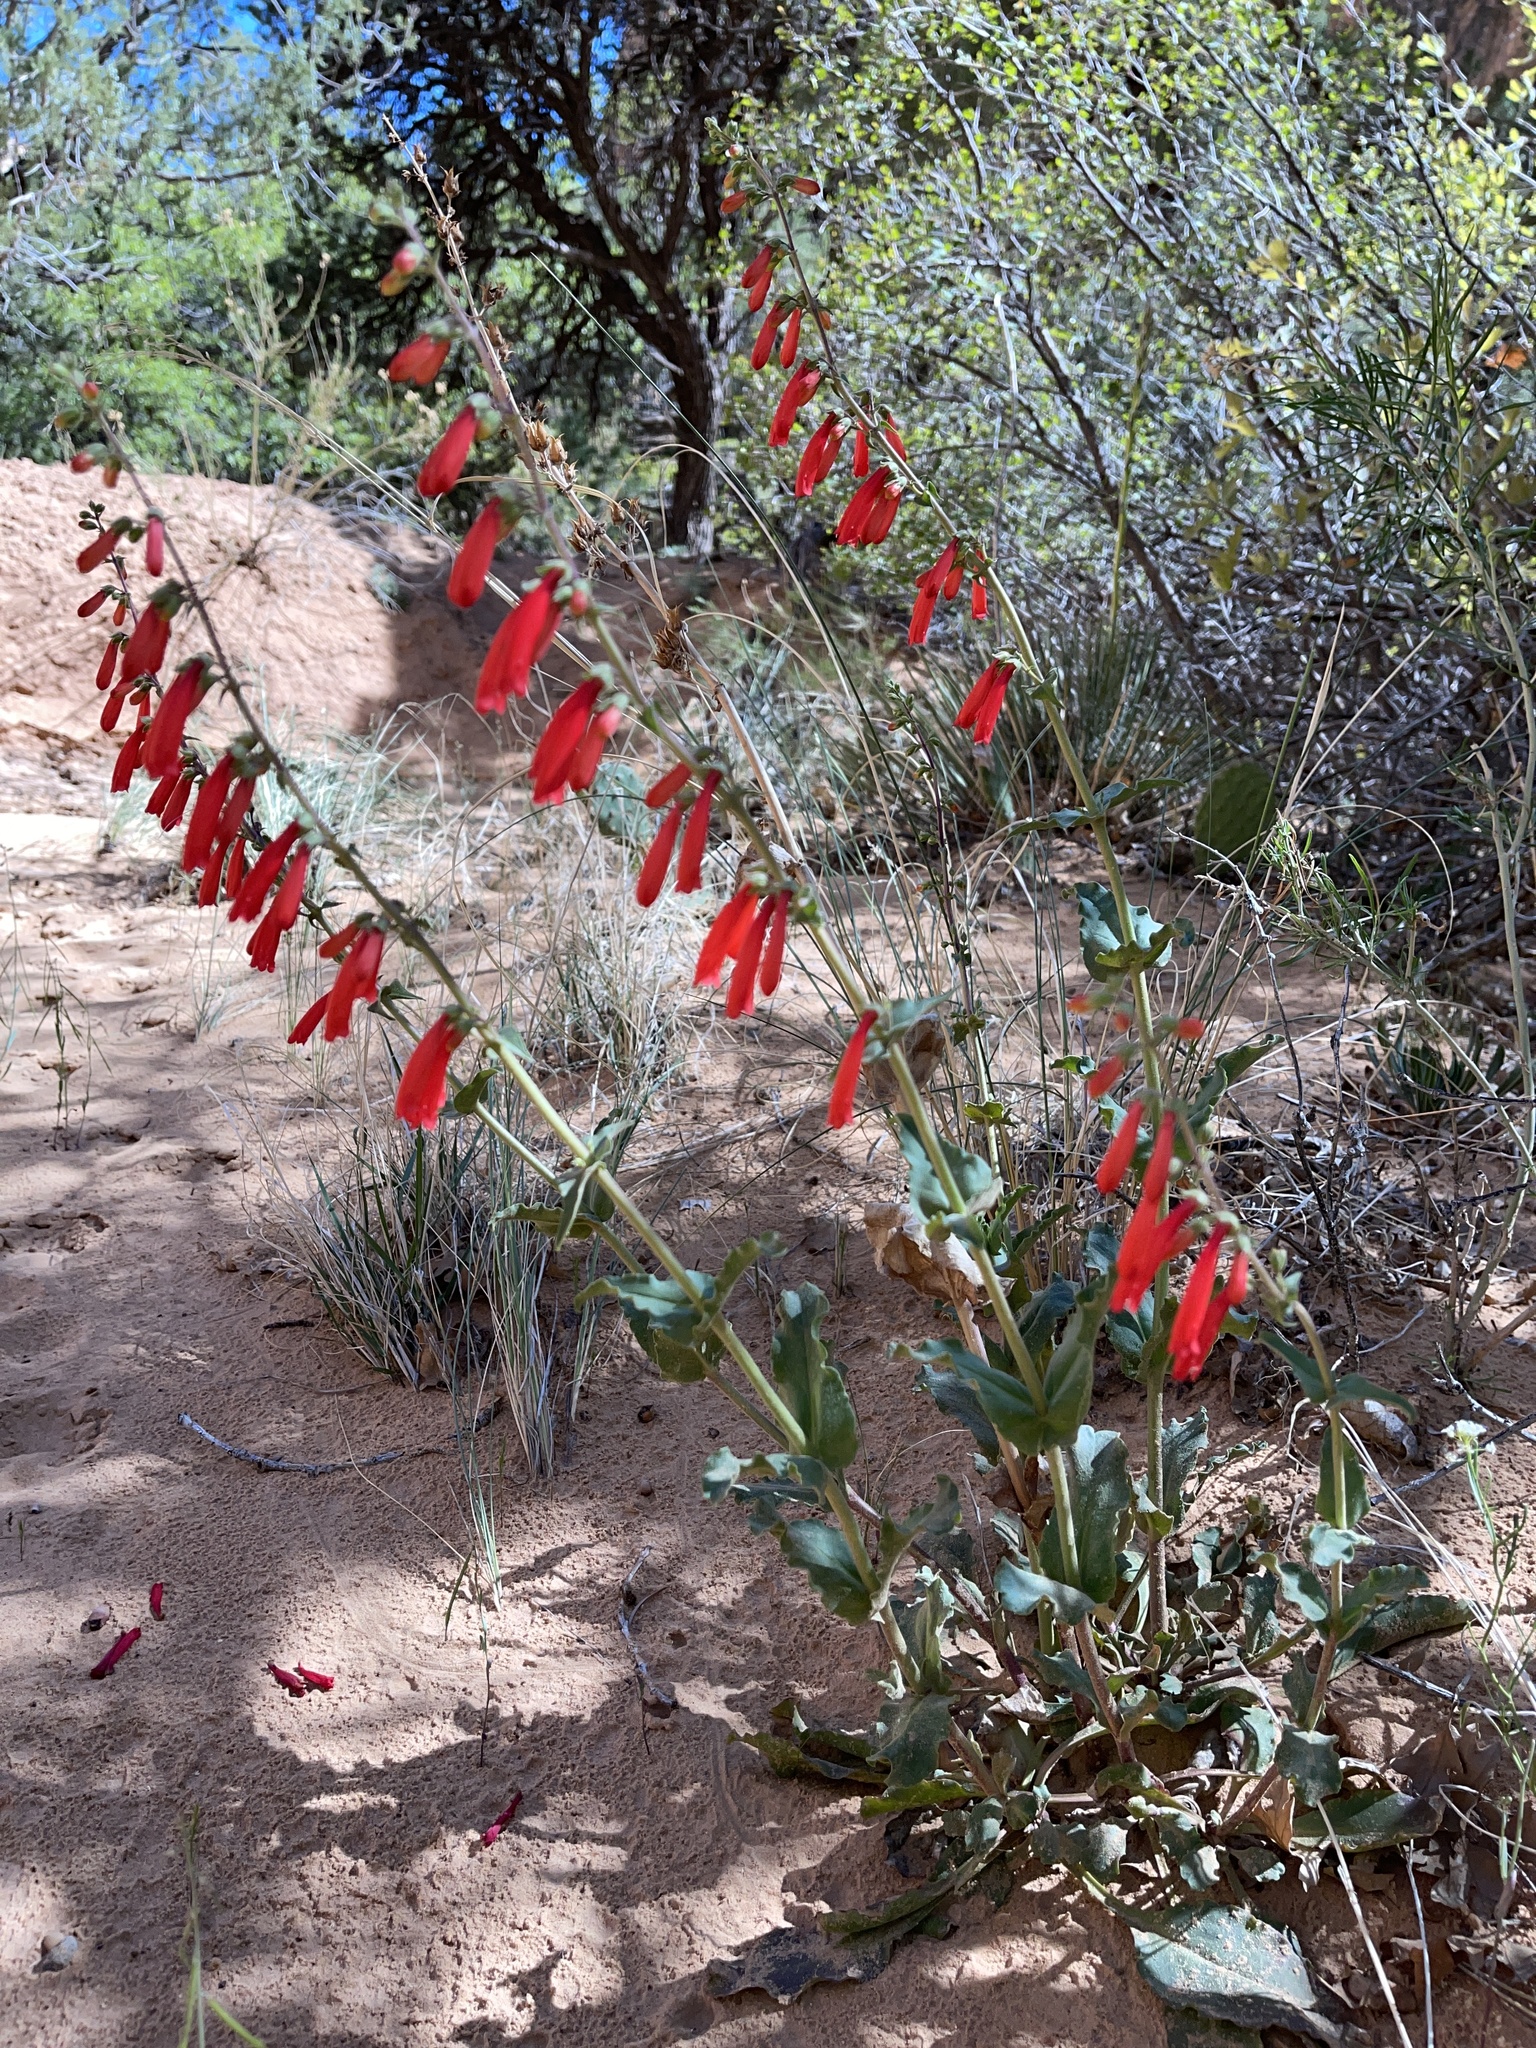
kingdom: Plantae
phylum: Tracheophyta
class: Magnoliopsida
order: Lamiales
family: Plantaginaceae
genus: Penstemon
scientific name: Penstemon eatonii
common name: Eaton's penstemon
